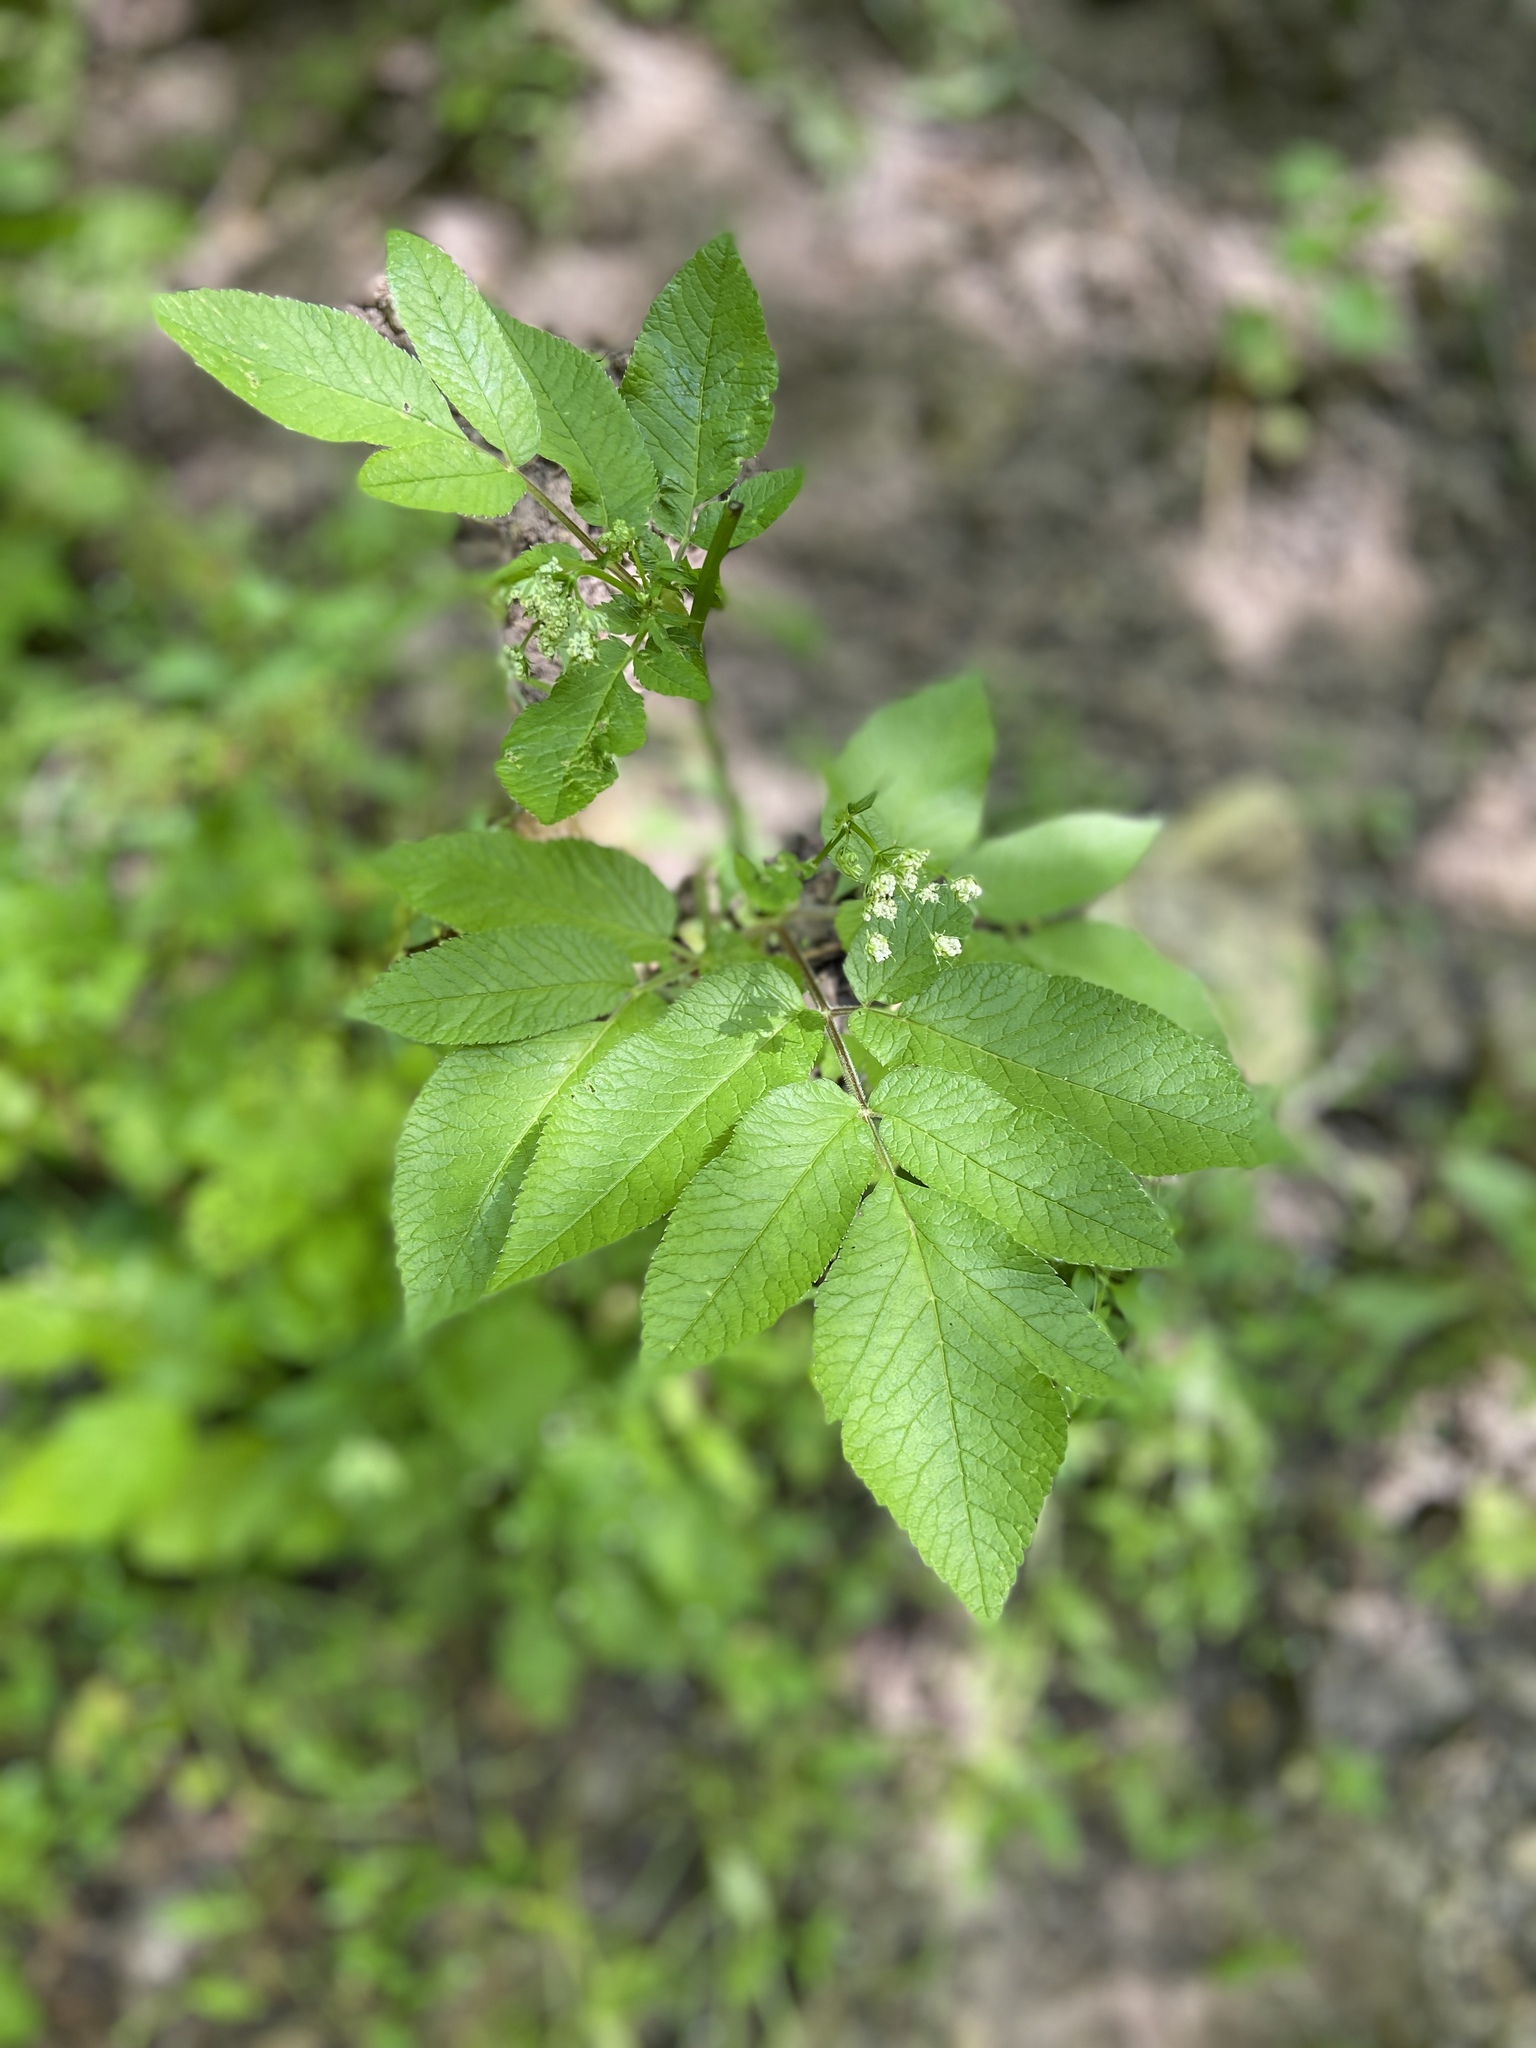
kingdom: Plantae
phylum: Tracheophyta
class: Magnoliopsida
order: Apiales
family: Apiaceae
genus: Chaerophyllum
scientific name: Chaerophyllum aromaticum
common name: Broadleaf chervil
